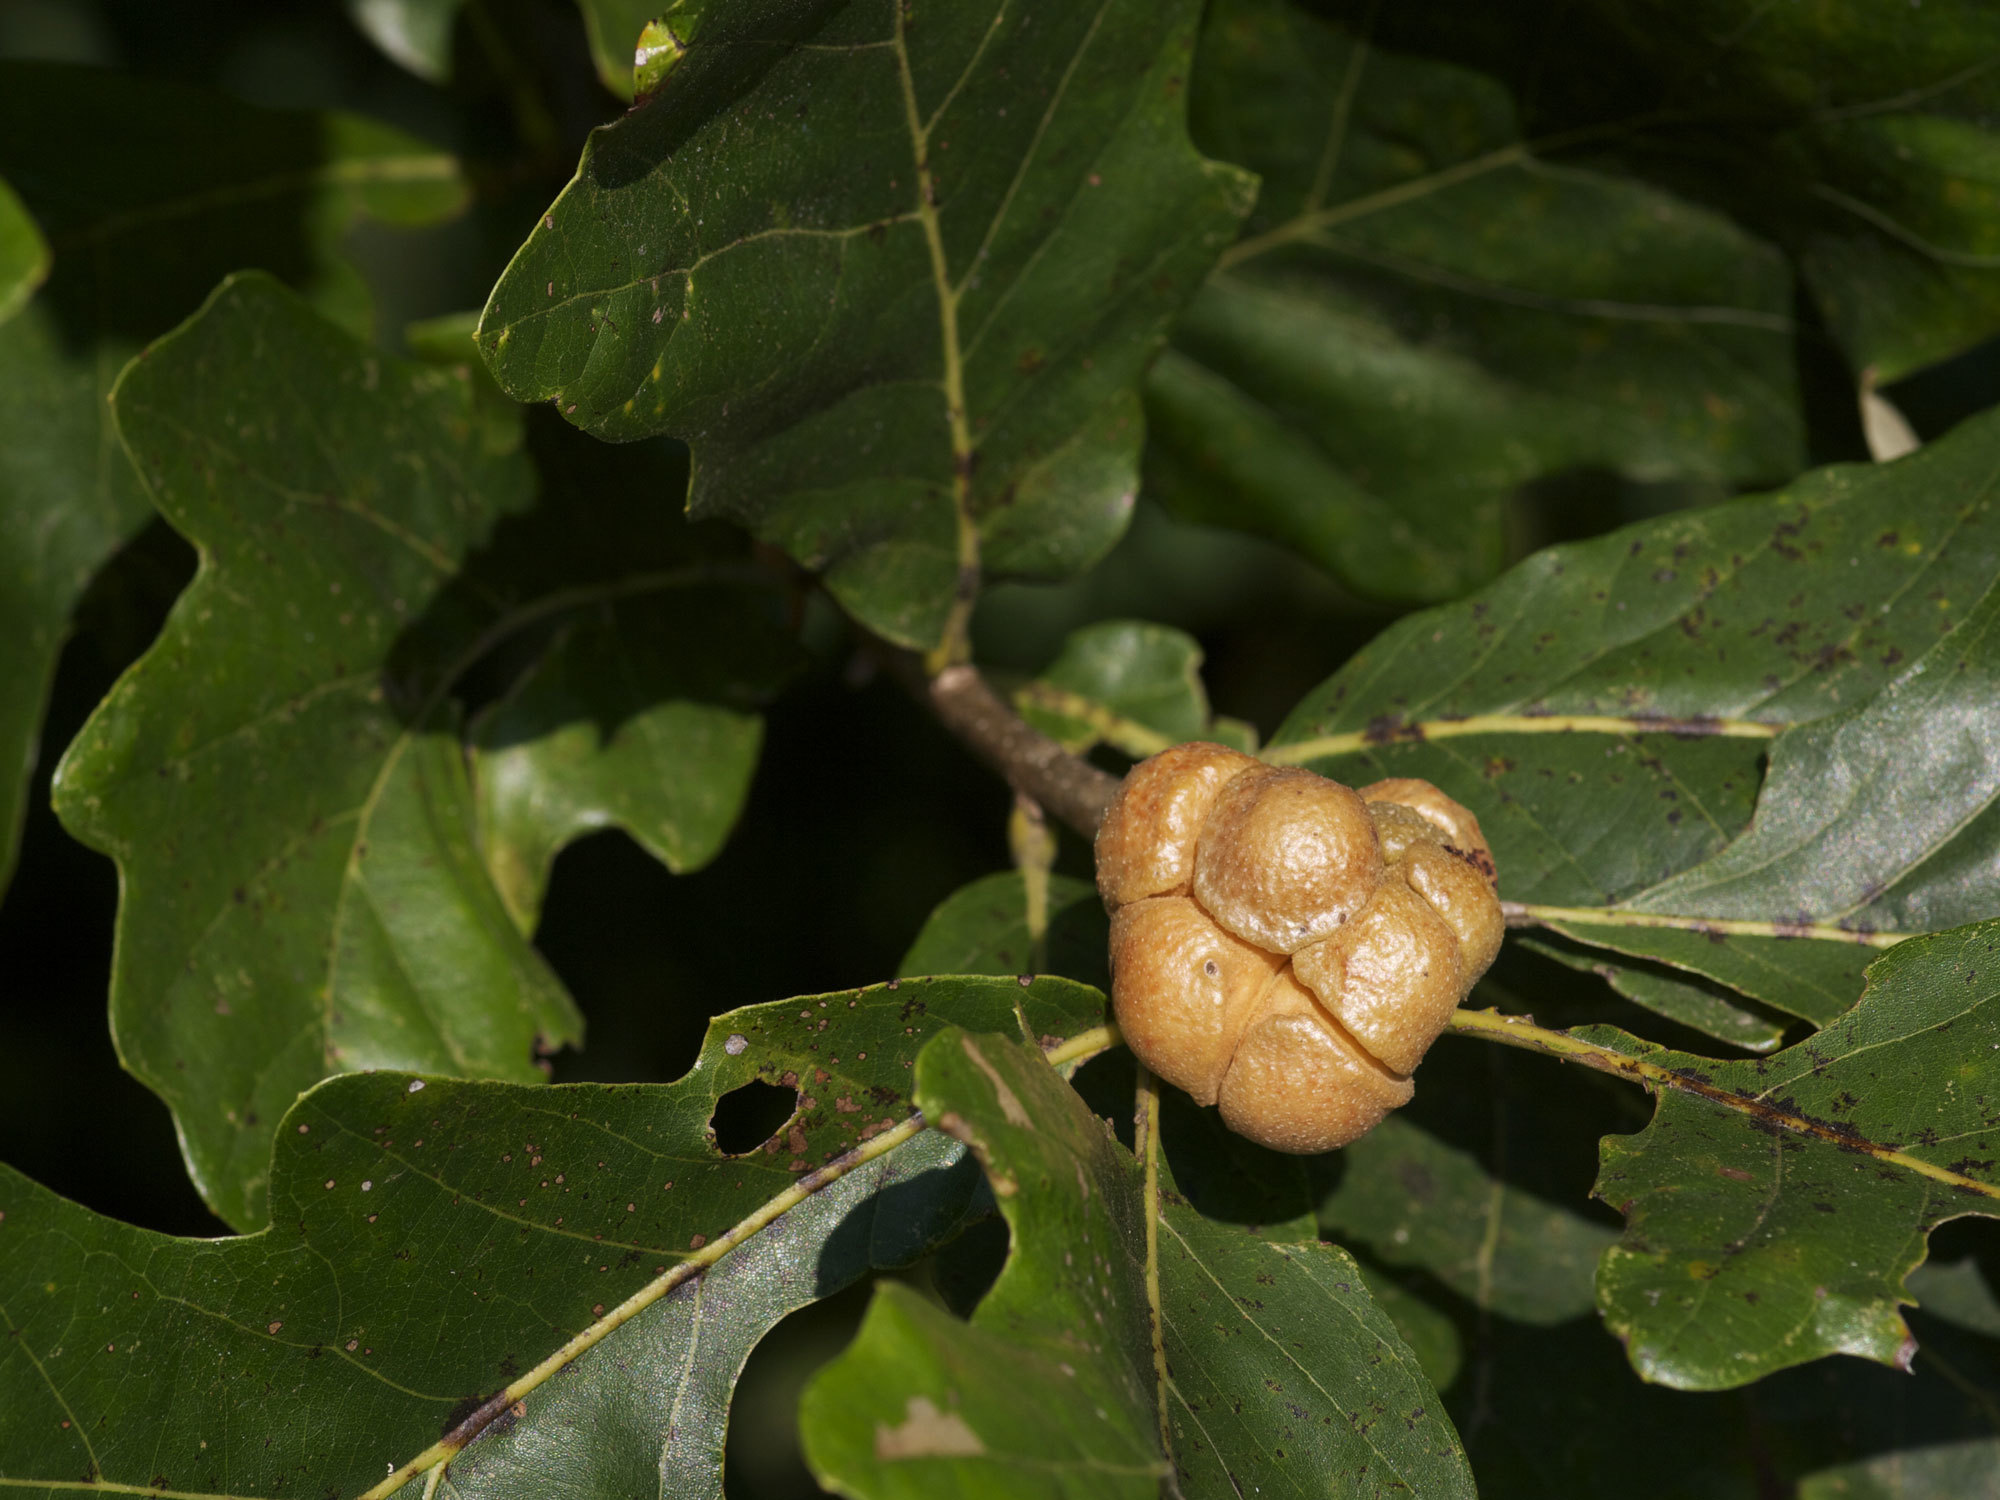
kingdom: Animalia
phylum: Arthropoda
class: Insecta
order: Hymenoptera
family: Cynipidae
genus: Andricus
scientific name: Andricus
